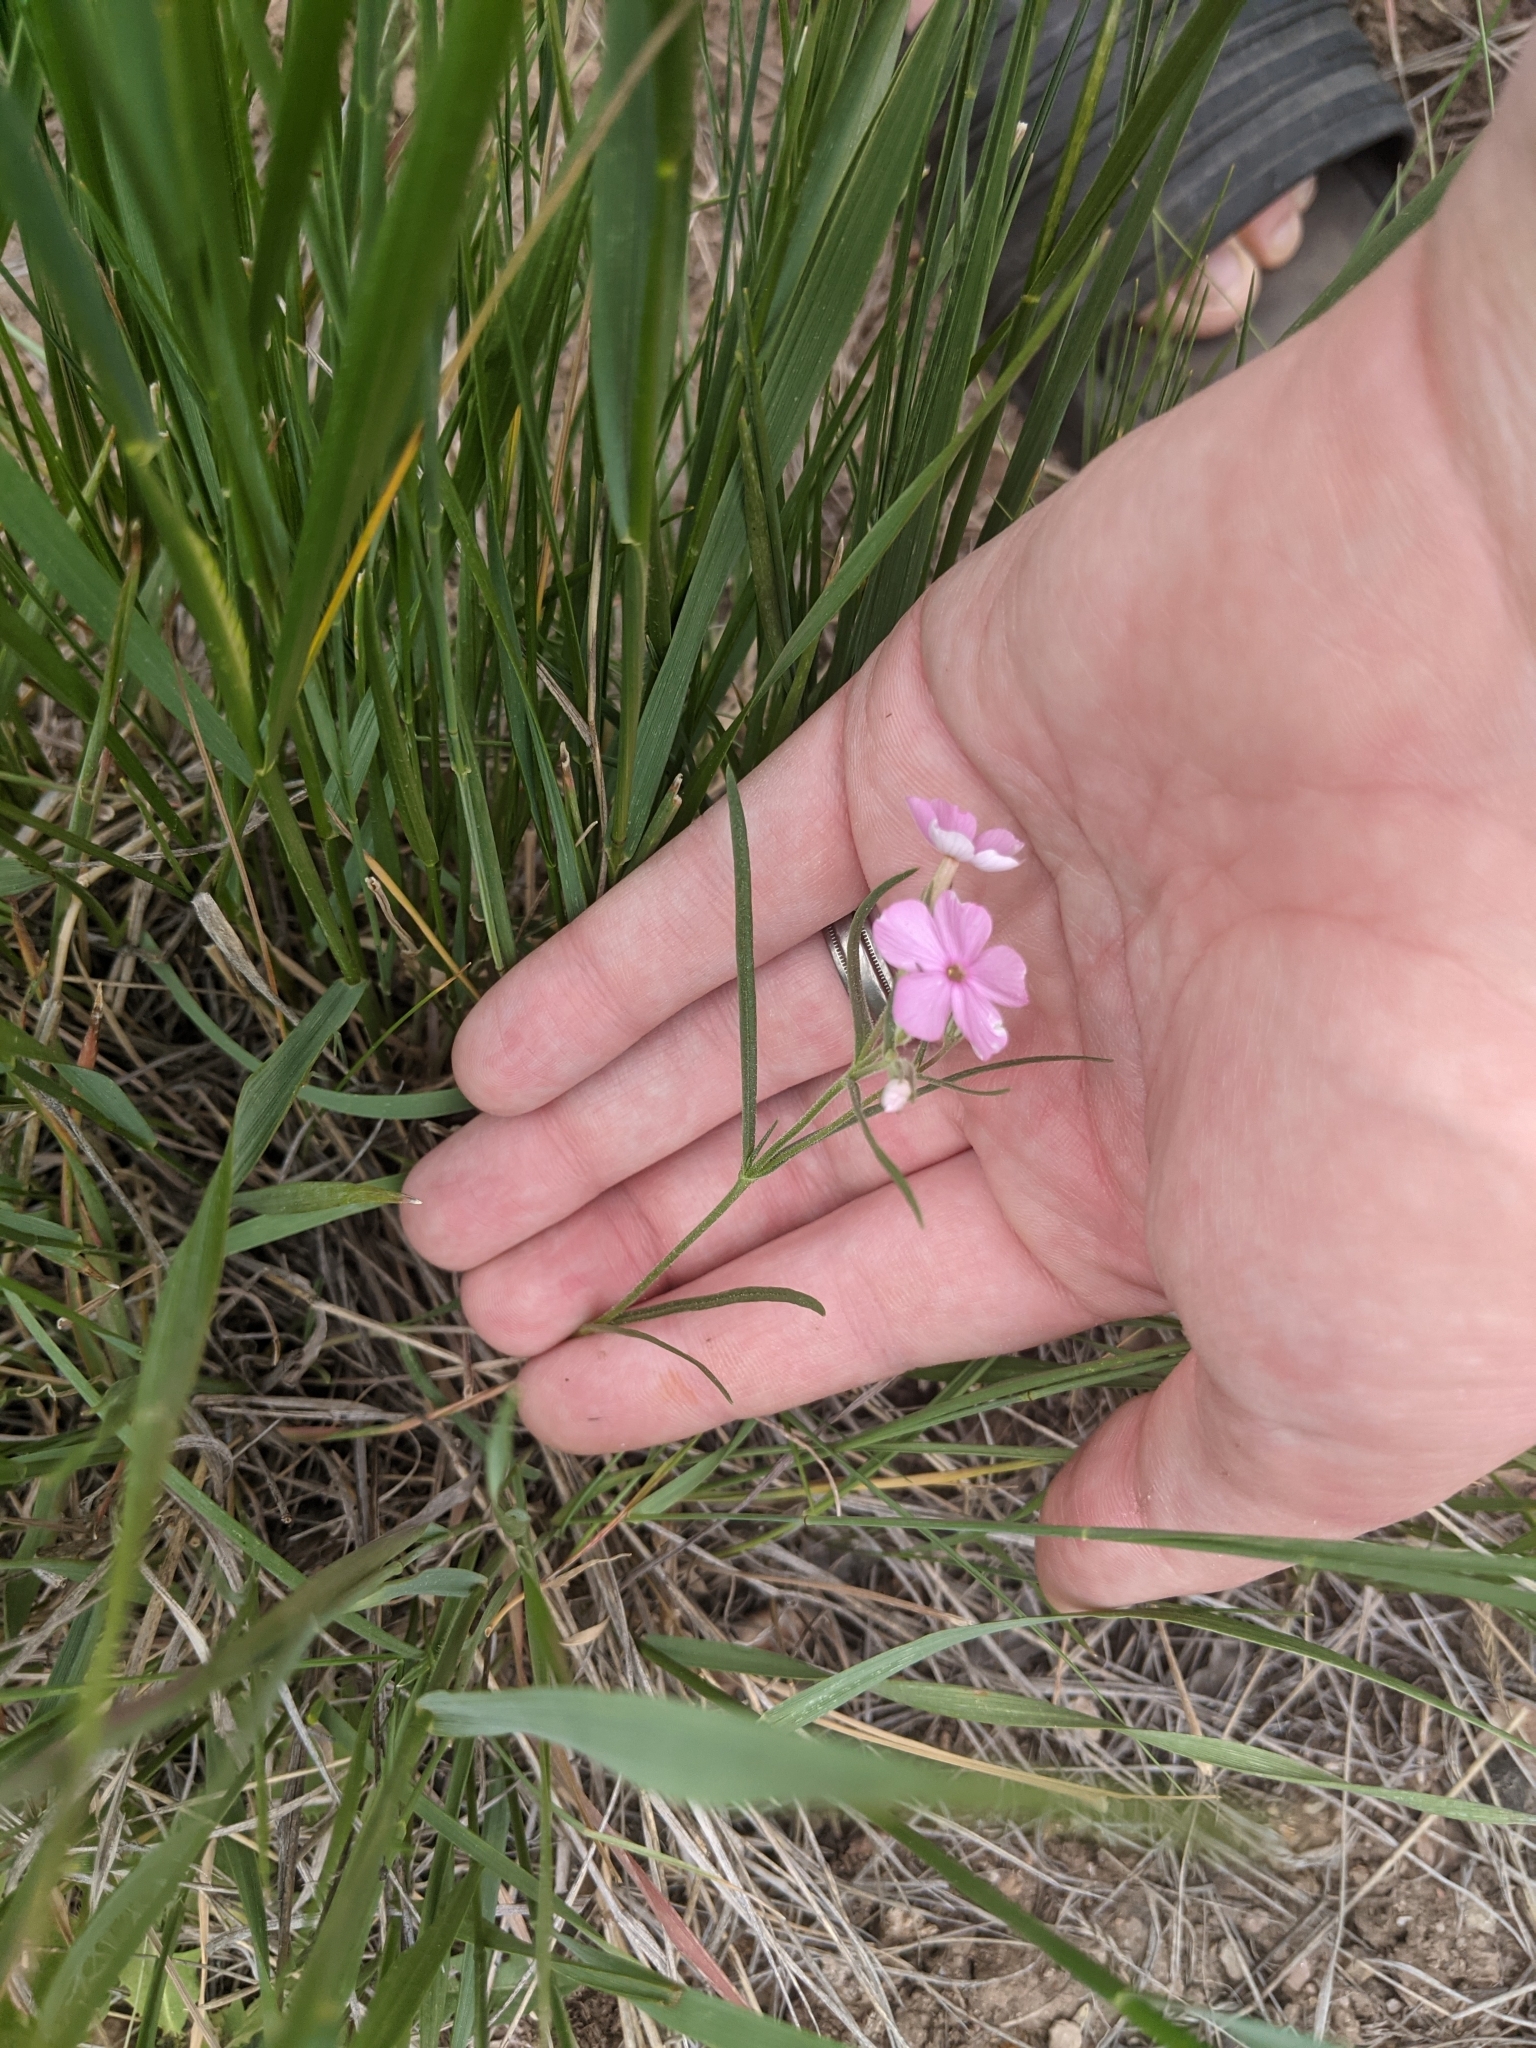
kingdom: Plantae
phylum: Tracheophyta
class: Magnoliopsida
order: Ericales
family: Polemoniaceae
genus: Phlox
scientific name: Phlox longifolia
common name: Longleaf phlox
